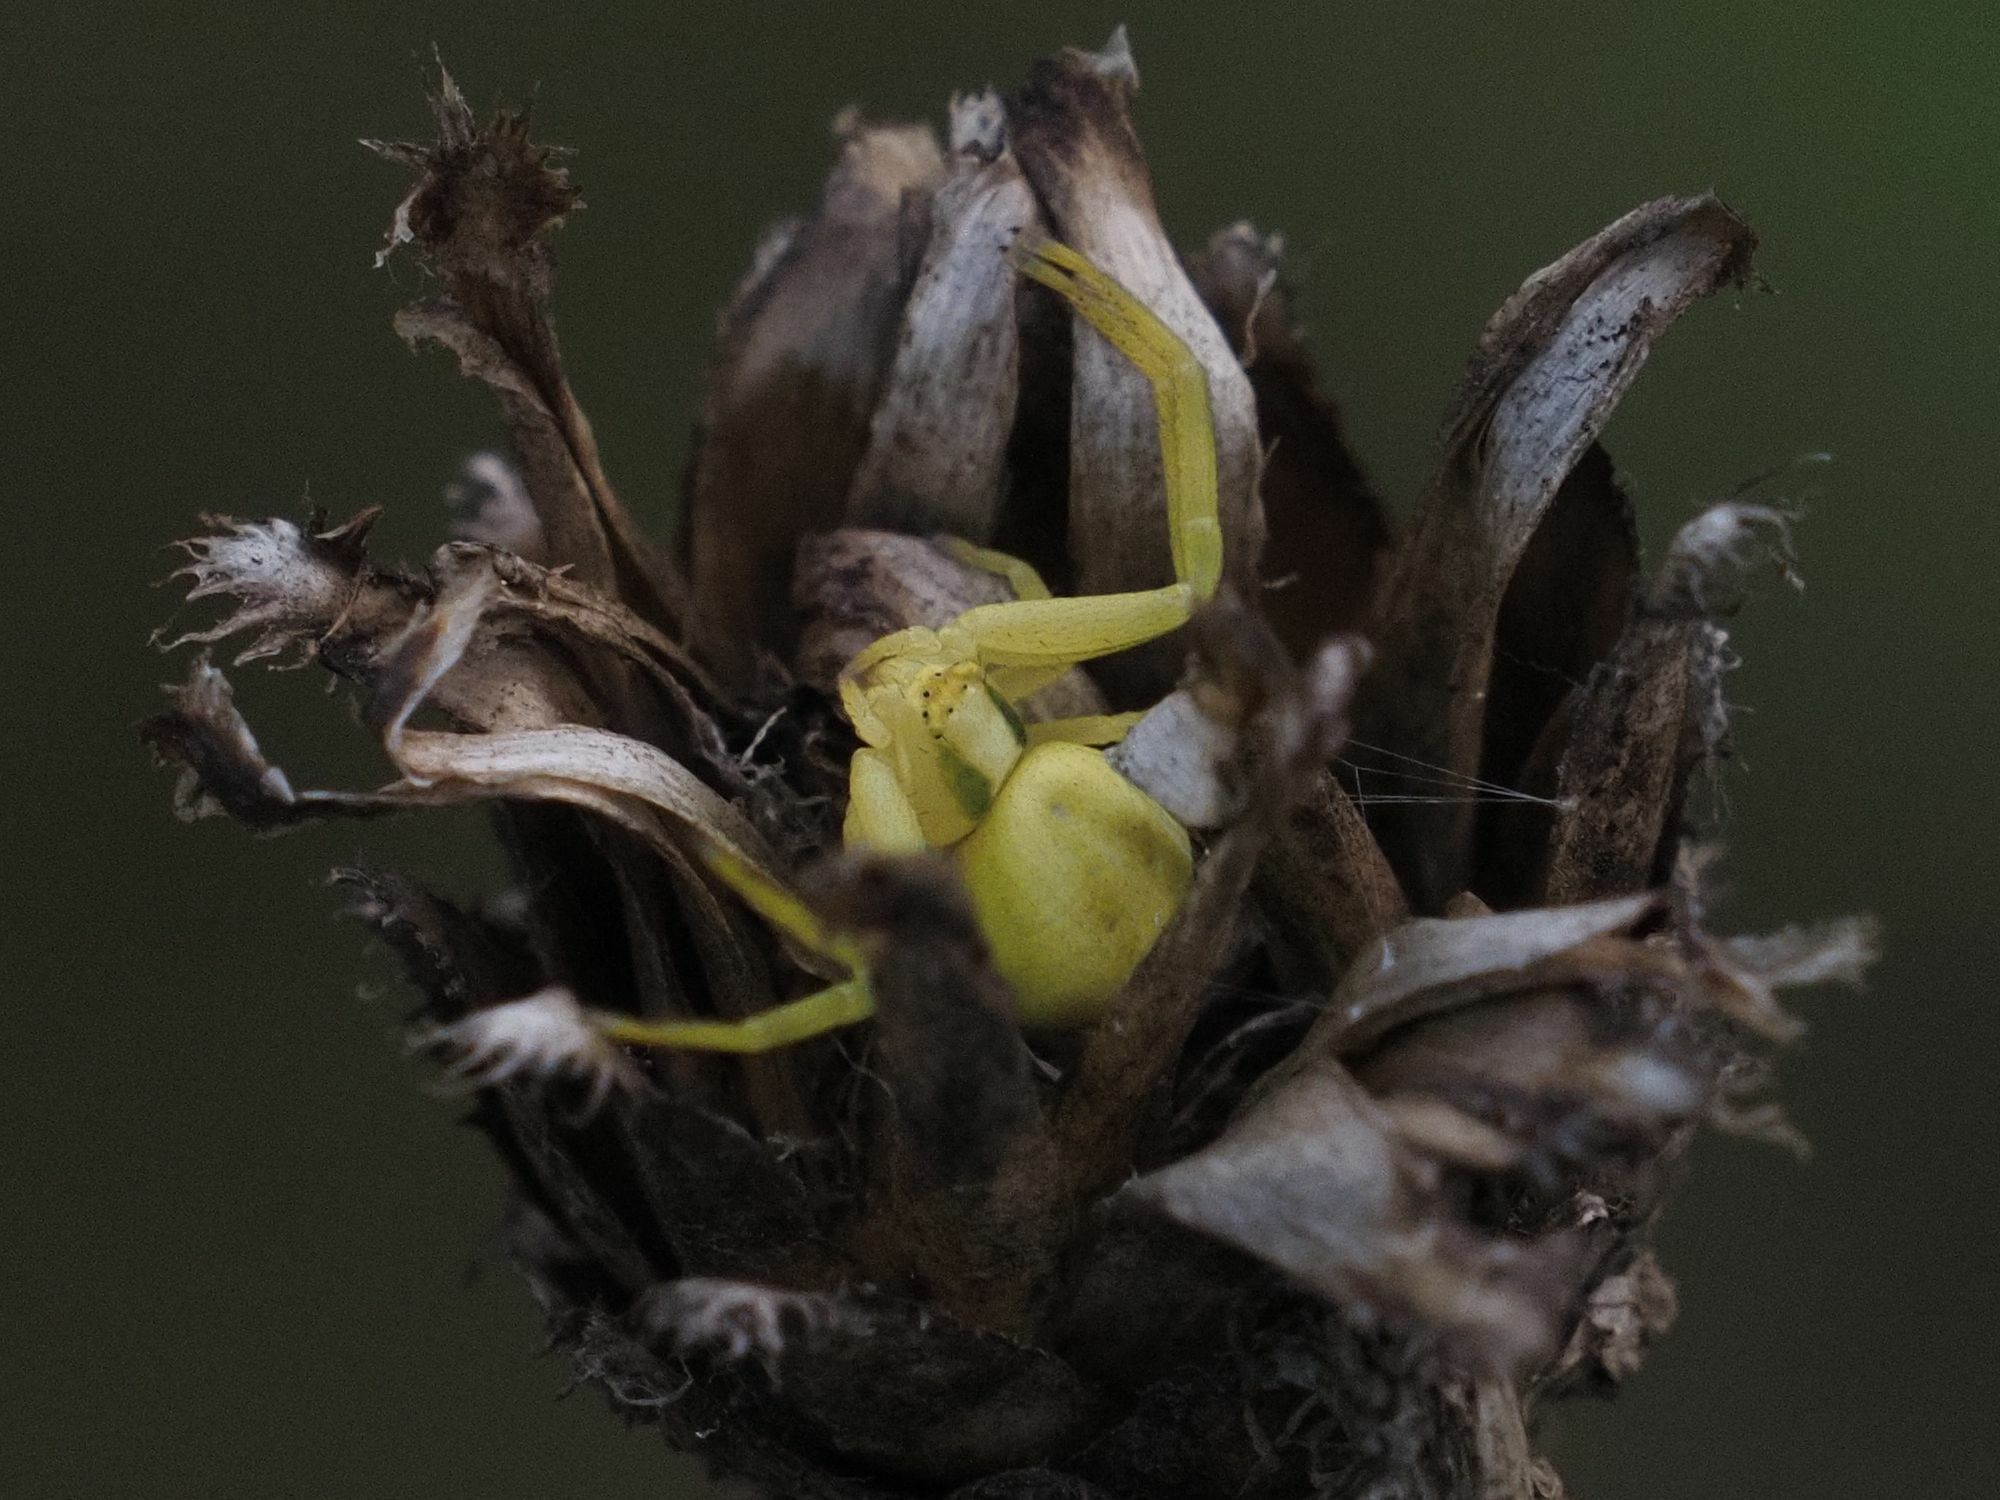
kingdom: Animalia
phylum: Arthropoda
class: Arachnida
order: Araneae
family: Thomisidae
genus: Misumena
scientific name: Misumena vatia
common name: Goldenrod crab spider
